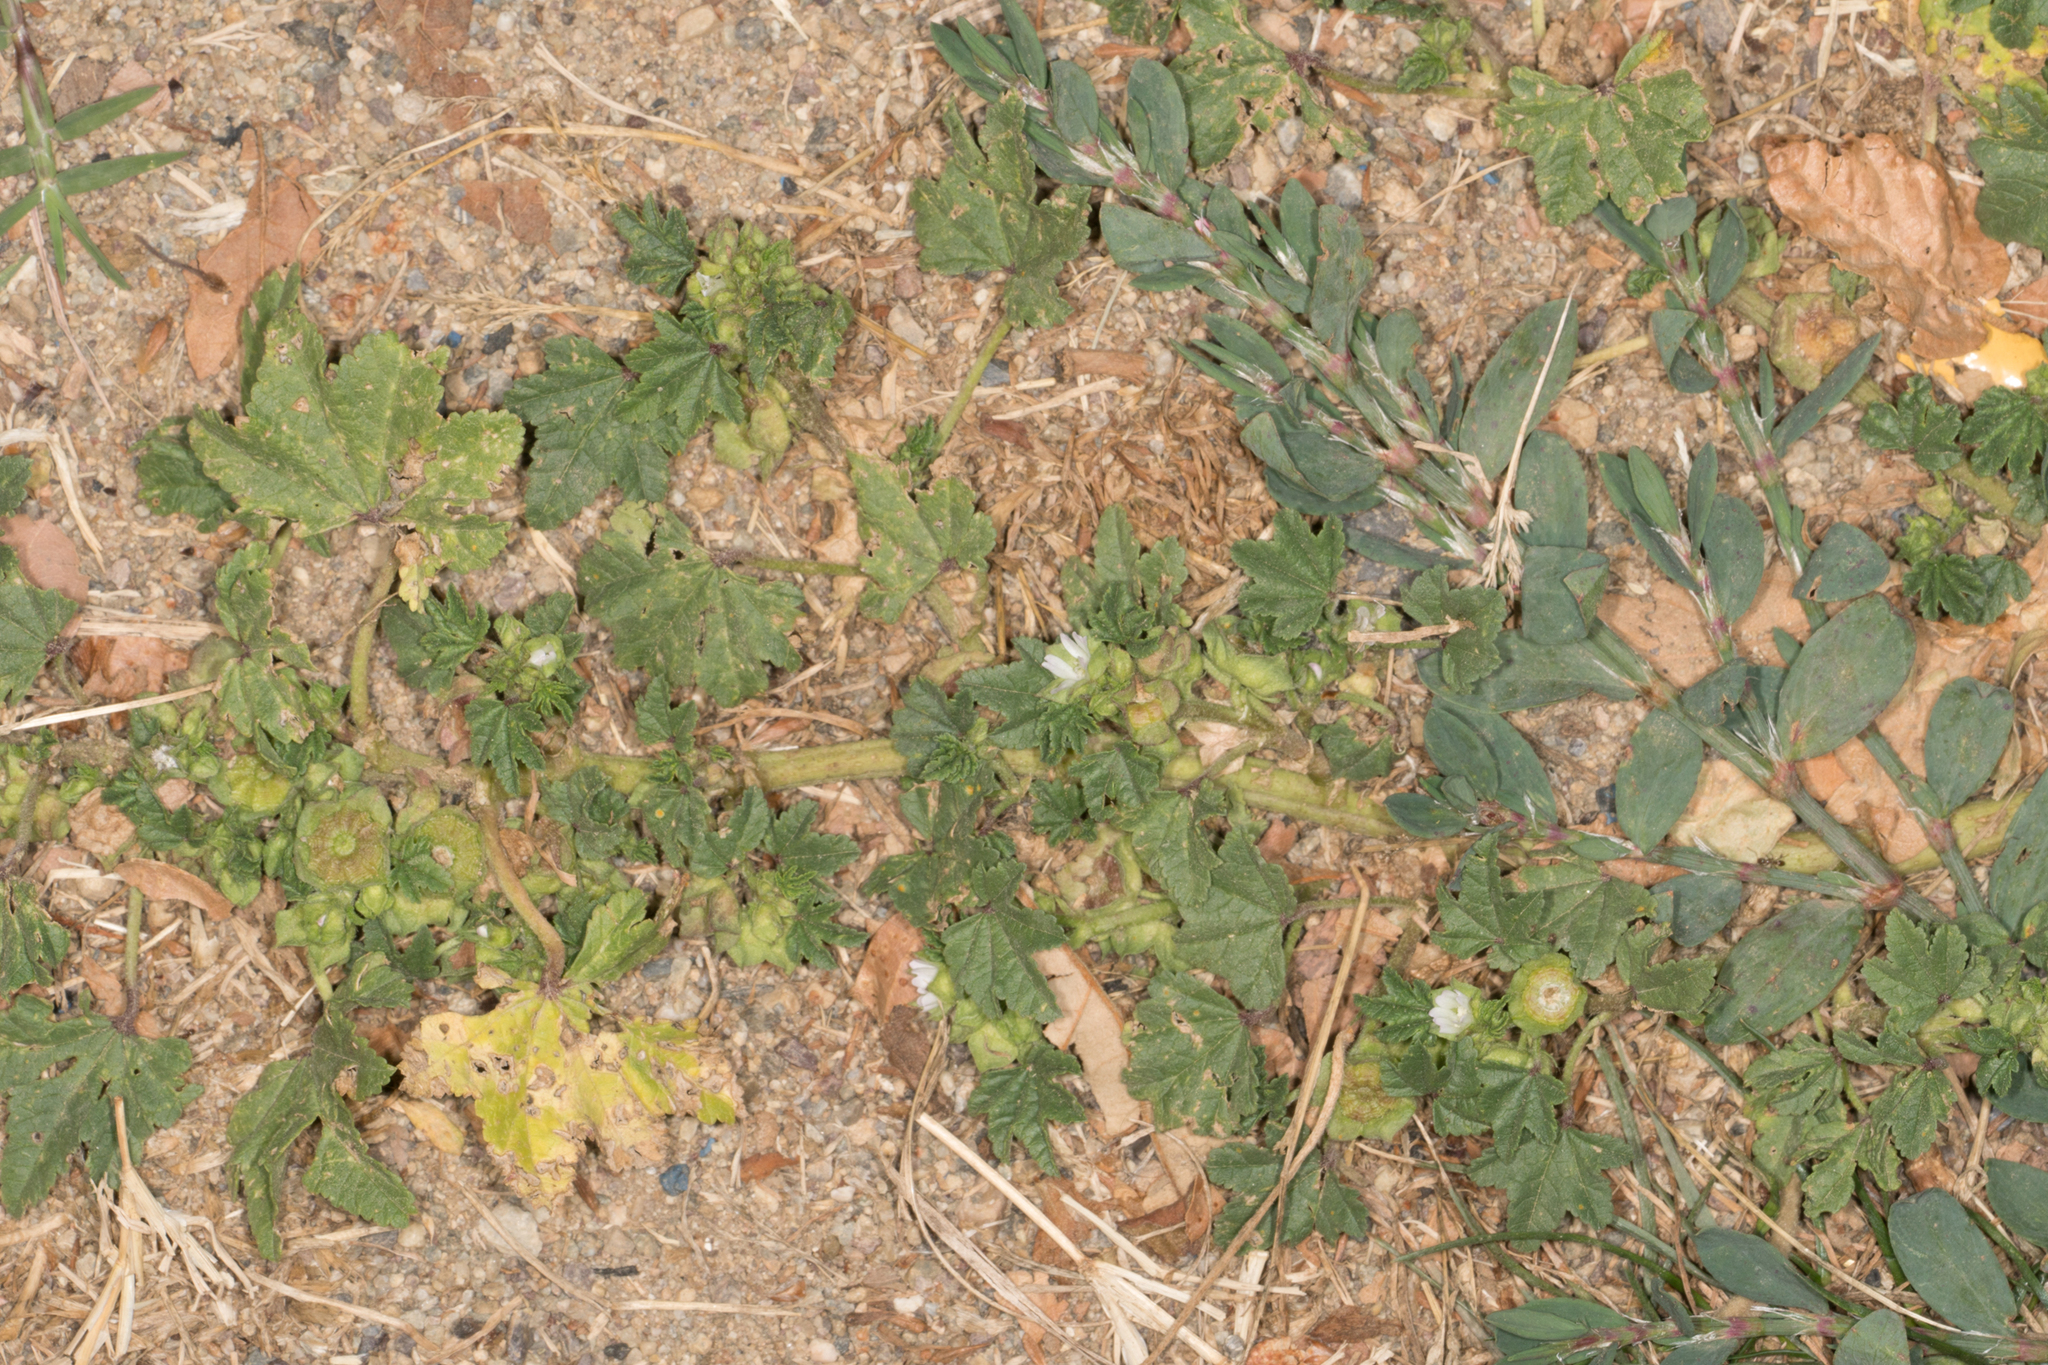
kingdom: Plantae
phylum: Tracheophyta
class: Magnoliopsida
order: Malvales
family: Malvaceae
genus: Malva
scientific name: Malva parviflora
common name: Least mallow
